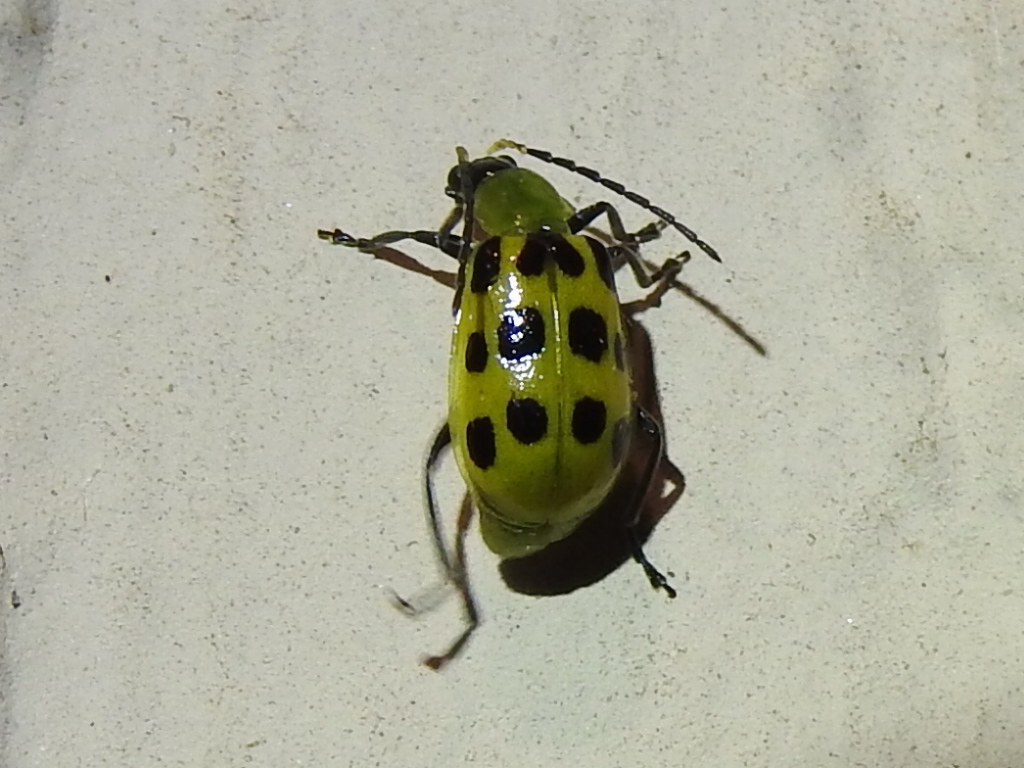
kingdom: Animalia
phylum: Arthropoda
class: Insecta
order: Coleoptera
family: Chrysomelidae
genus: Diabrotica
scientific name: Diabrotica undecimpunctata
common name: Spotted cucumber beetle
